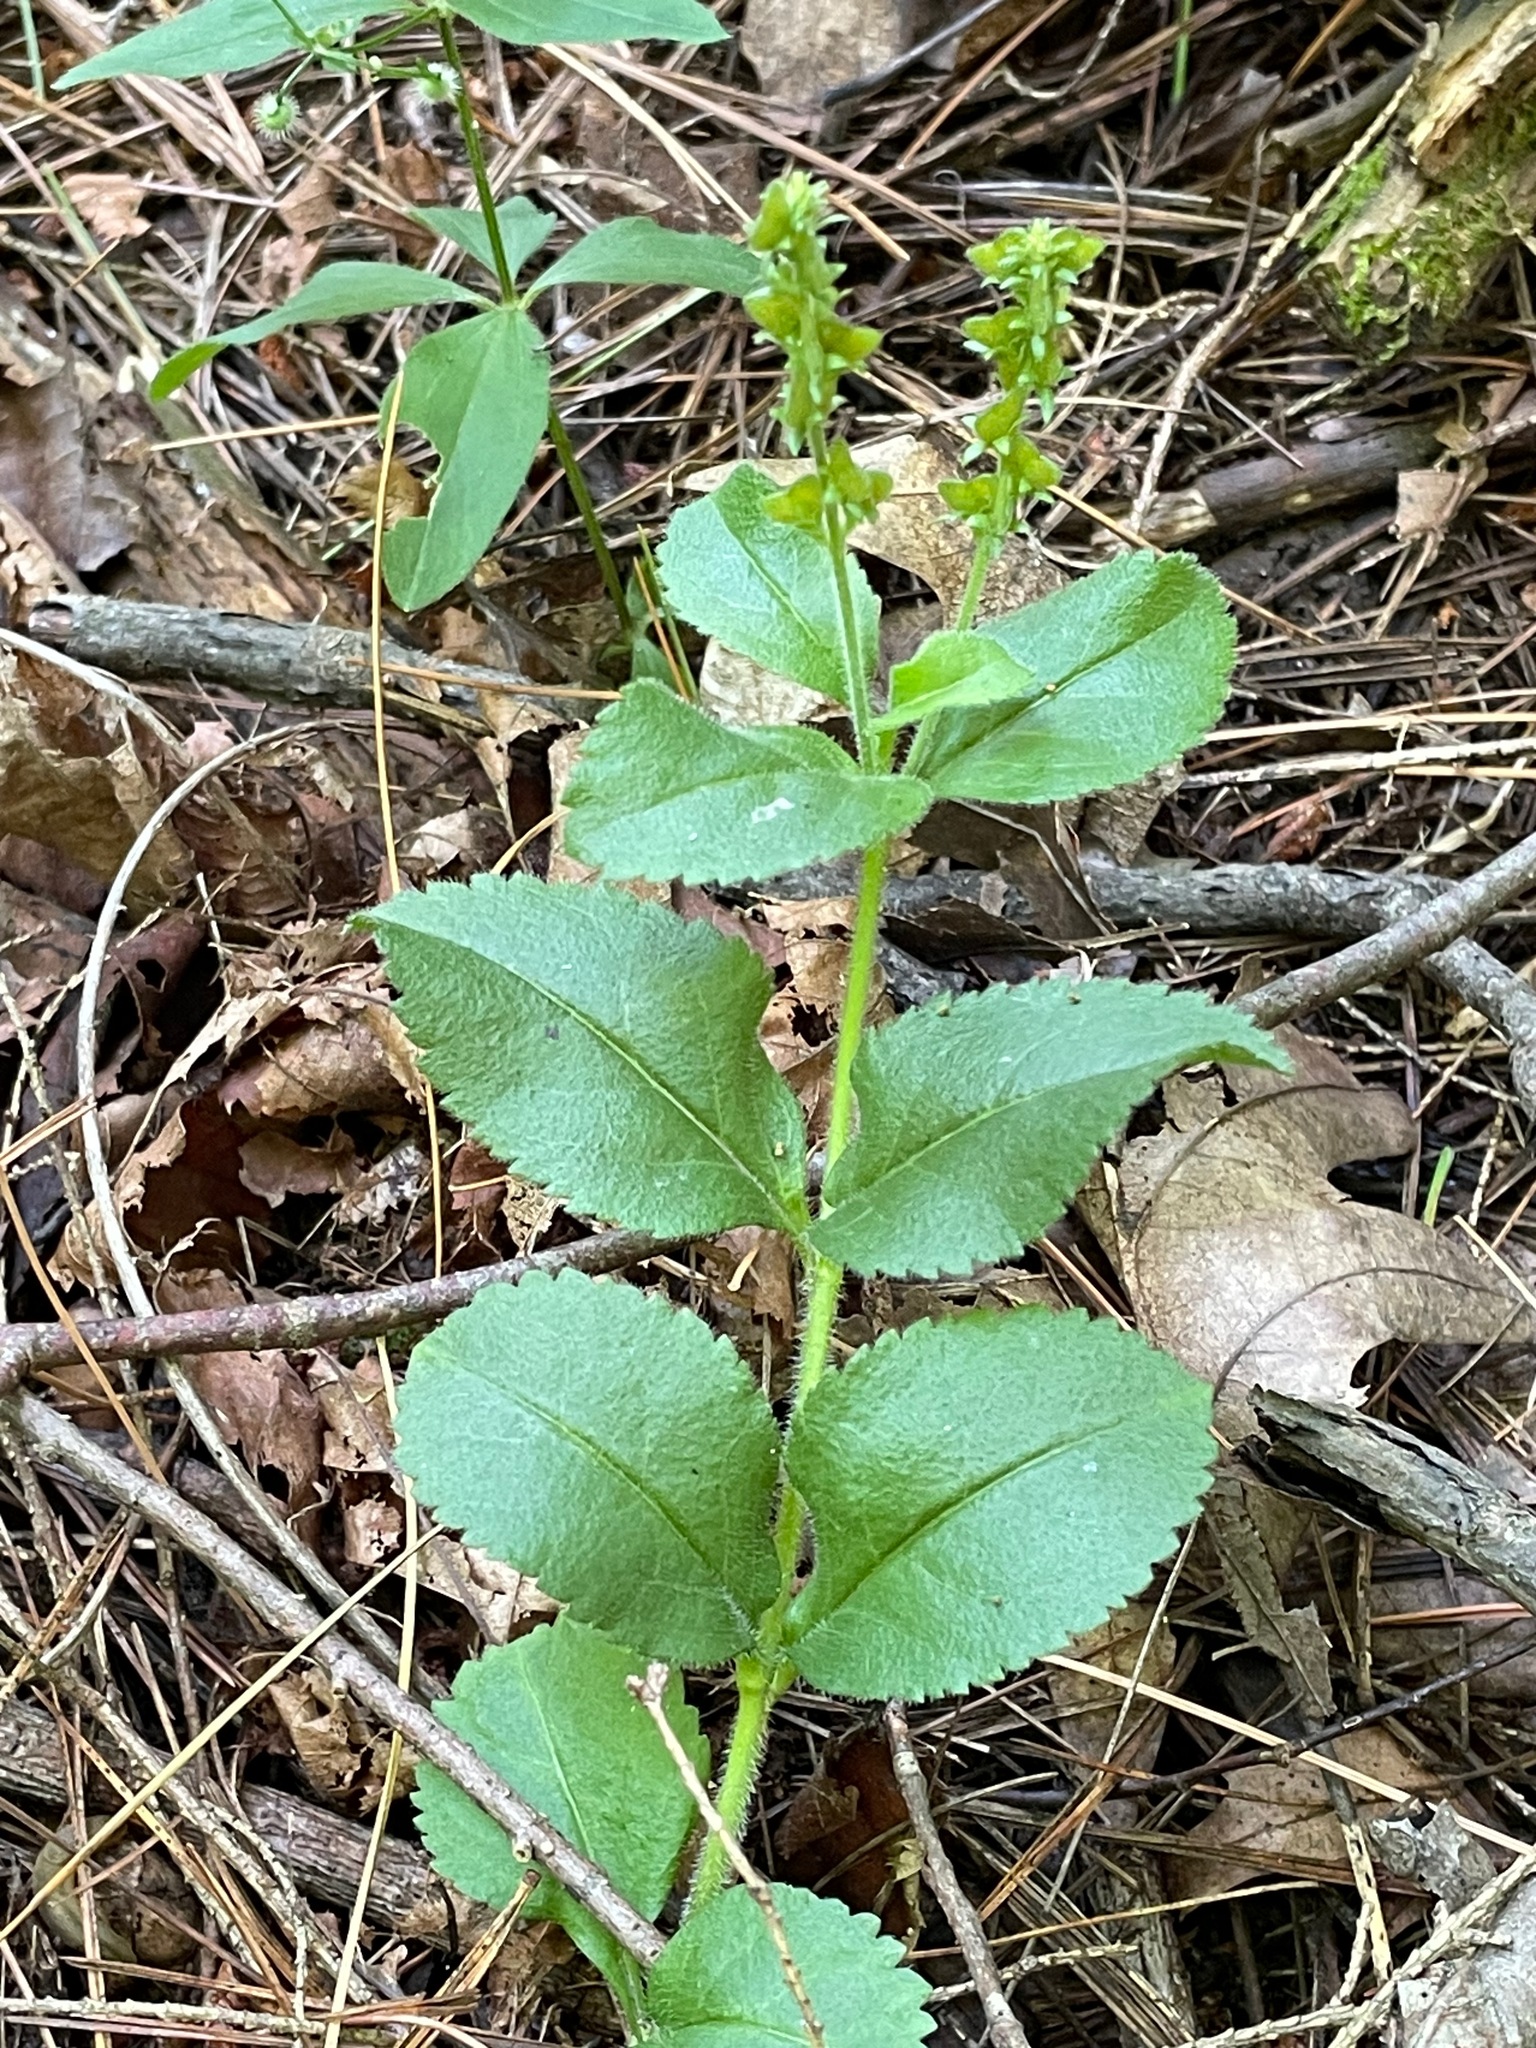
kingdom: Plantae
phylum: Tracheophyta
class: Magnoliopsida
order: Lamiales
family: Plantaginaceae
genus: Veronica
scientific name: Veronica officinalis
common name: Common speedwell
